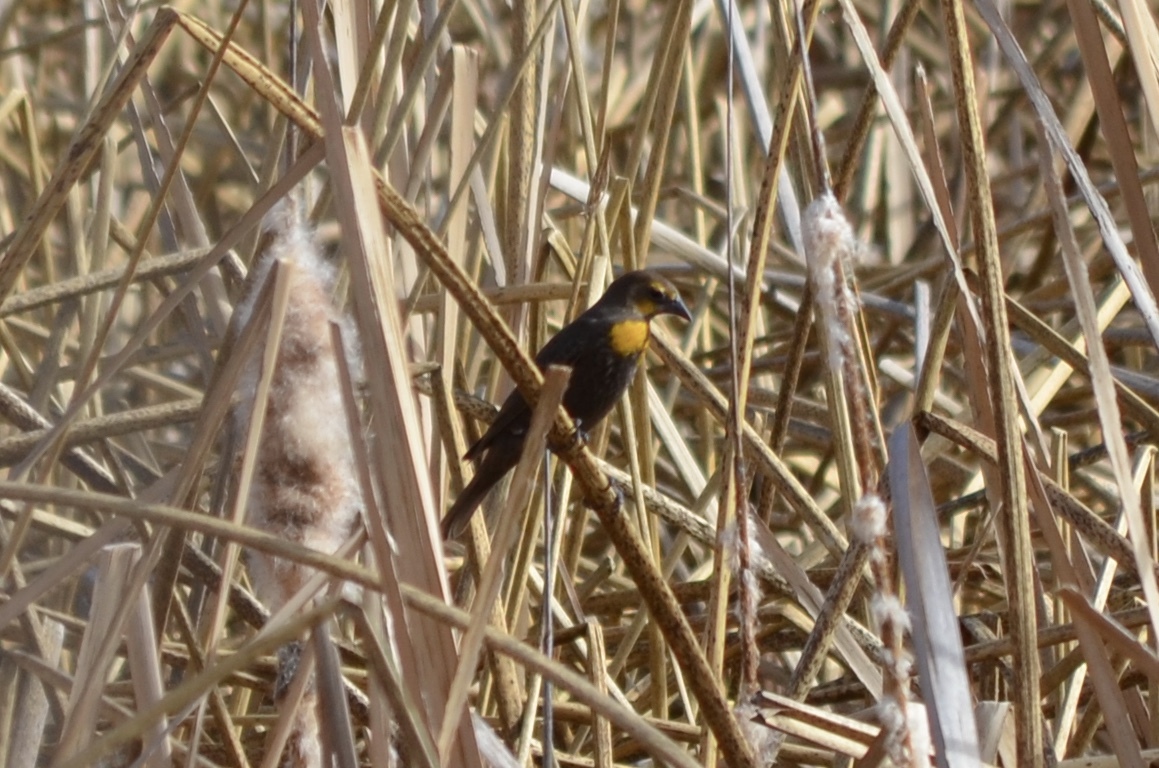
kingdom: Animalia
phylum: Chordata
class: Aves
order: Passeriformes
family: Icteridae
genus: Xanthocephalus
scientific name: Xanthocephalus xanthocephalus
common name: Yellow-headed blackbird
